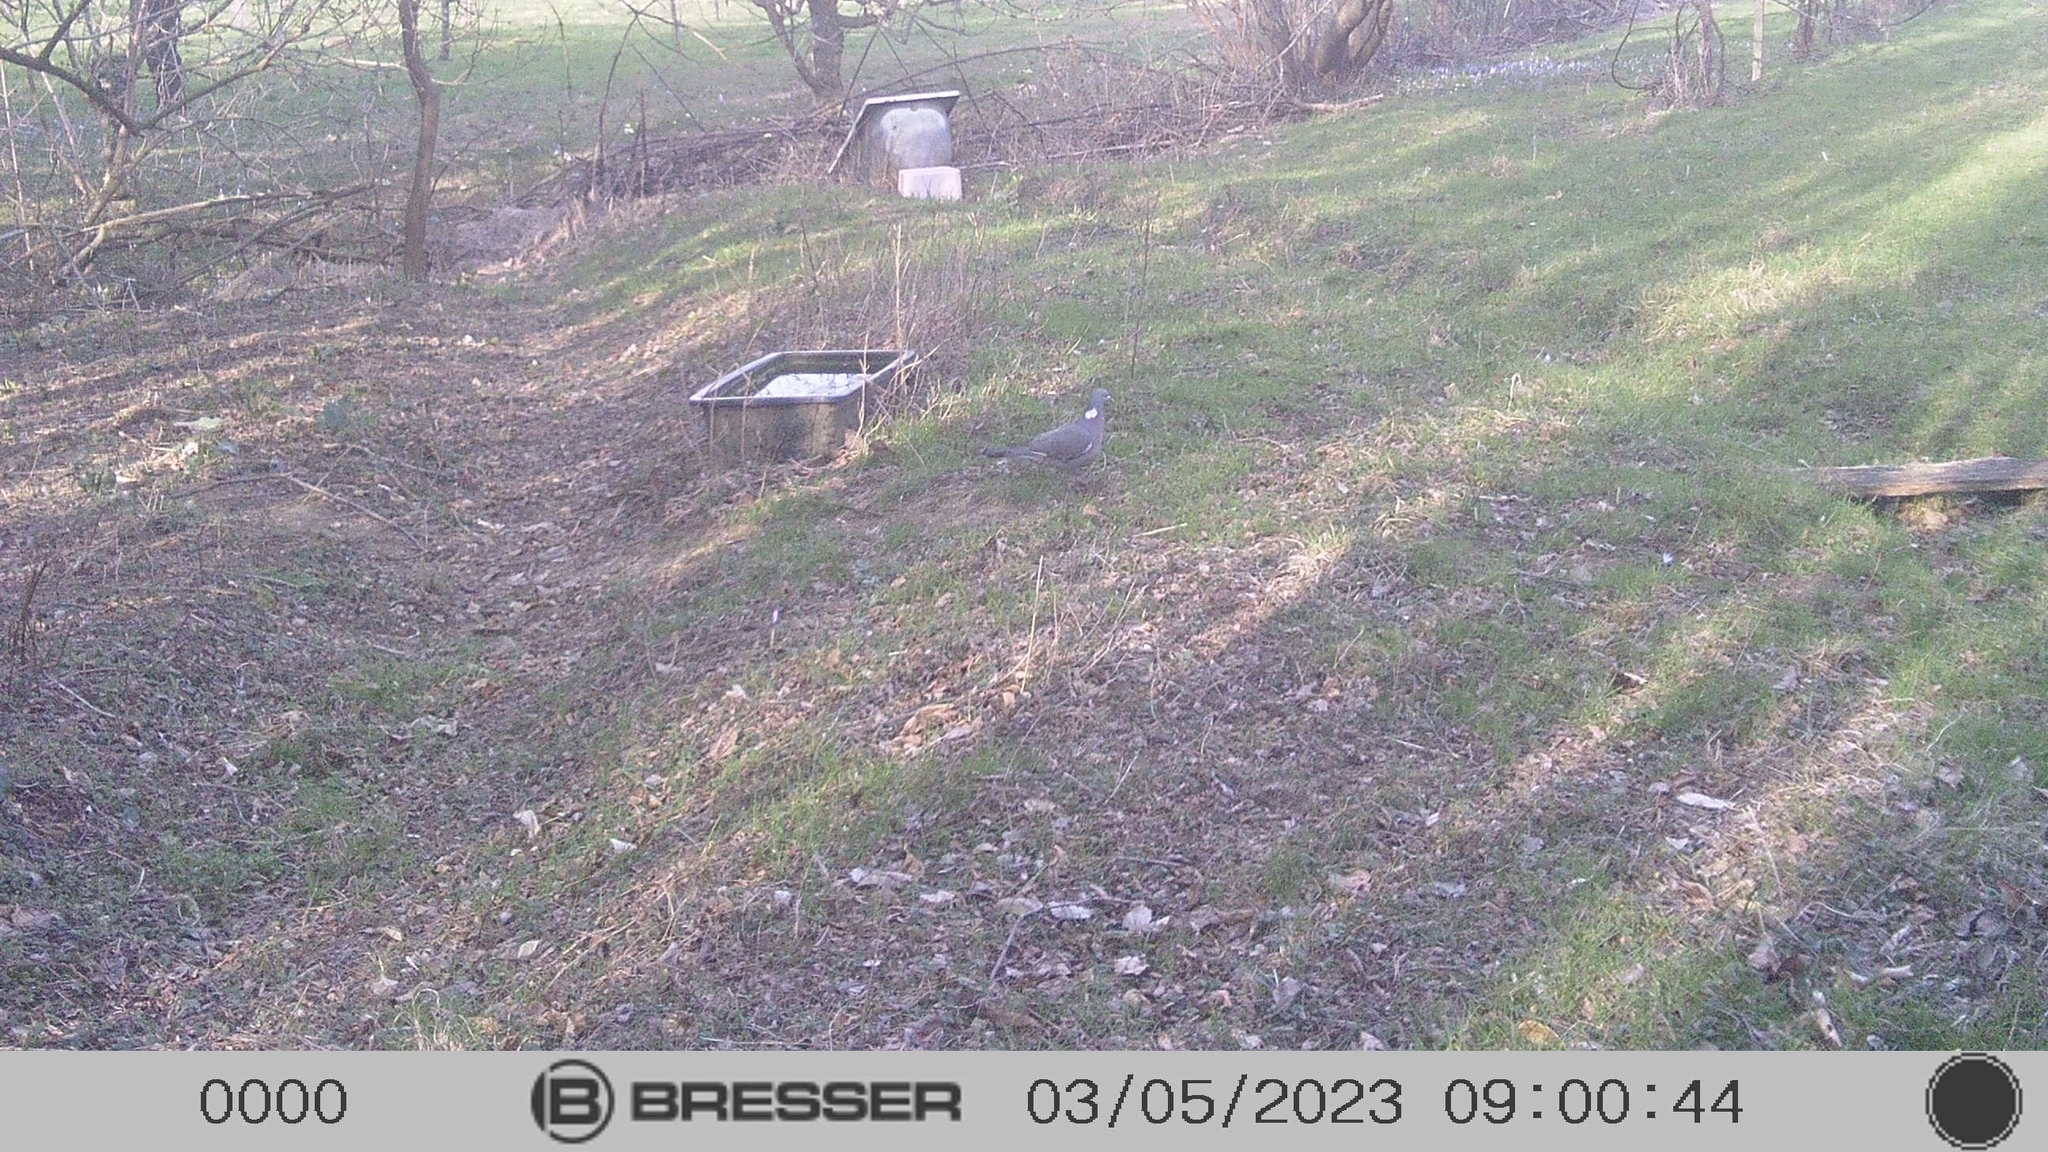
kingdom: Animalia
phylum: Chordata
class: Aves
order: Columbiformes
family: Columbidae
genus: Columba
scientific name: Columba palumbus
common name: Common wood pigeon
